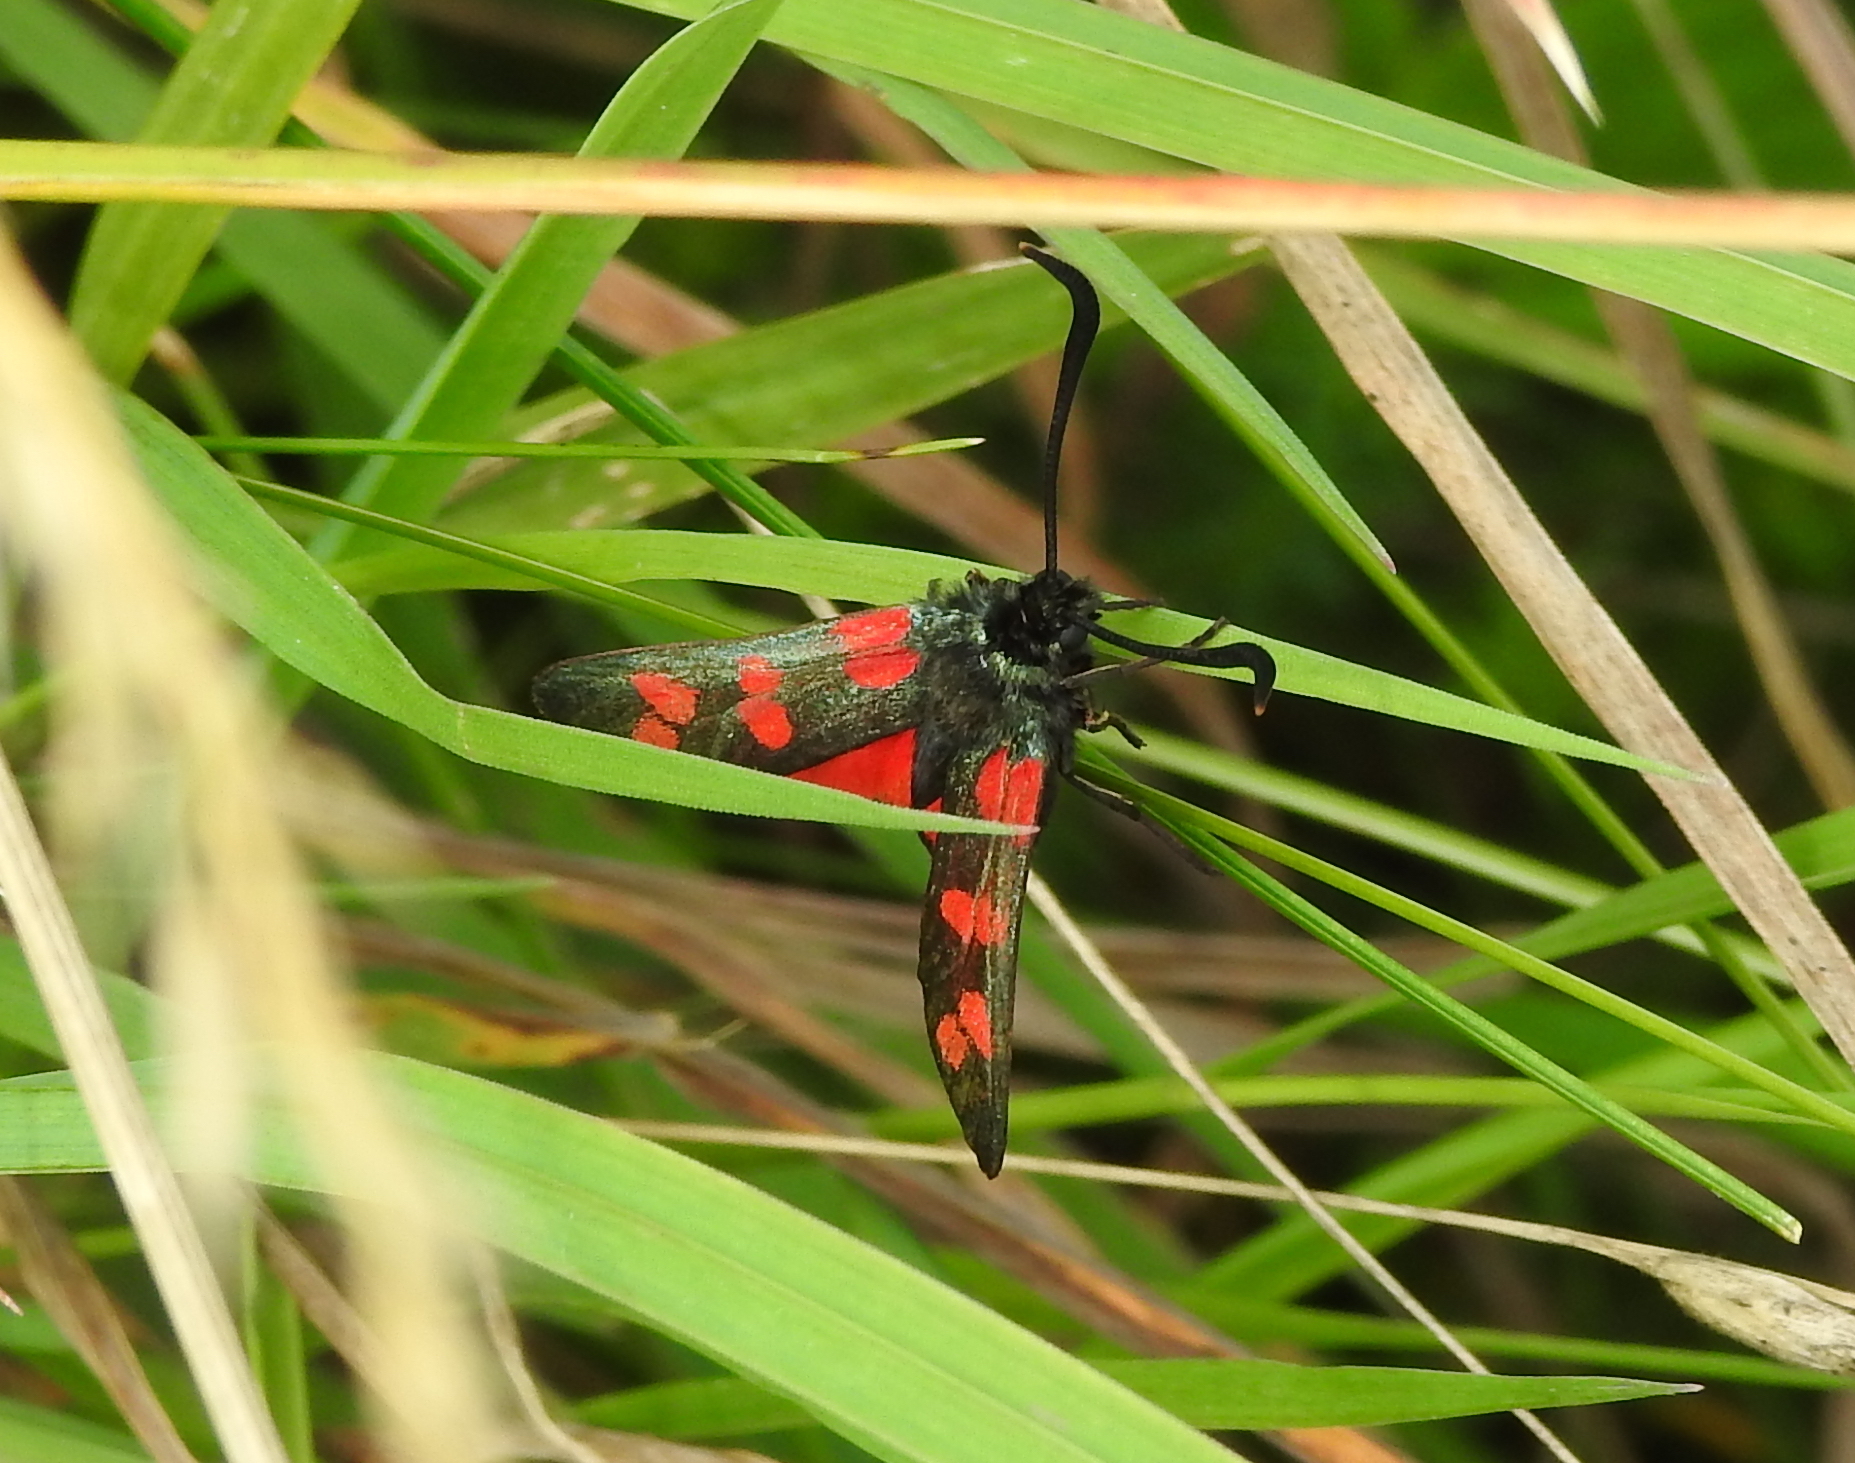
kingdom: Animalia
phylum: Arthropoda
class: Insecta
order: Lepidoptera
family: Zygaenidae
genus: Zygaena
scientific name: Zygaena filipendulae
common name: Six-spot burnet
